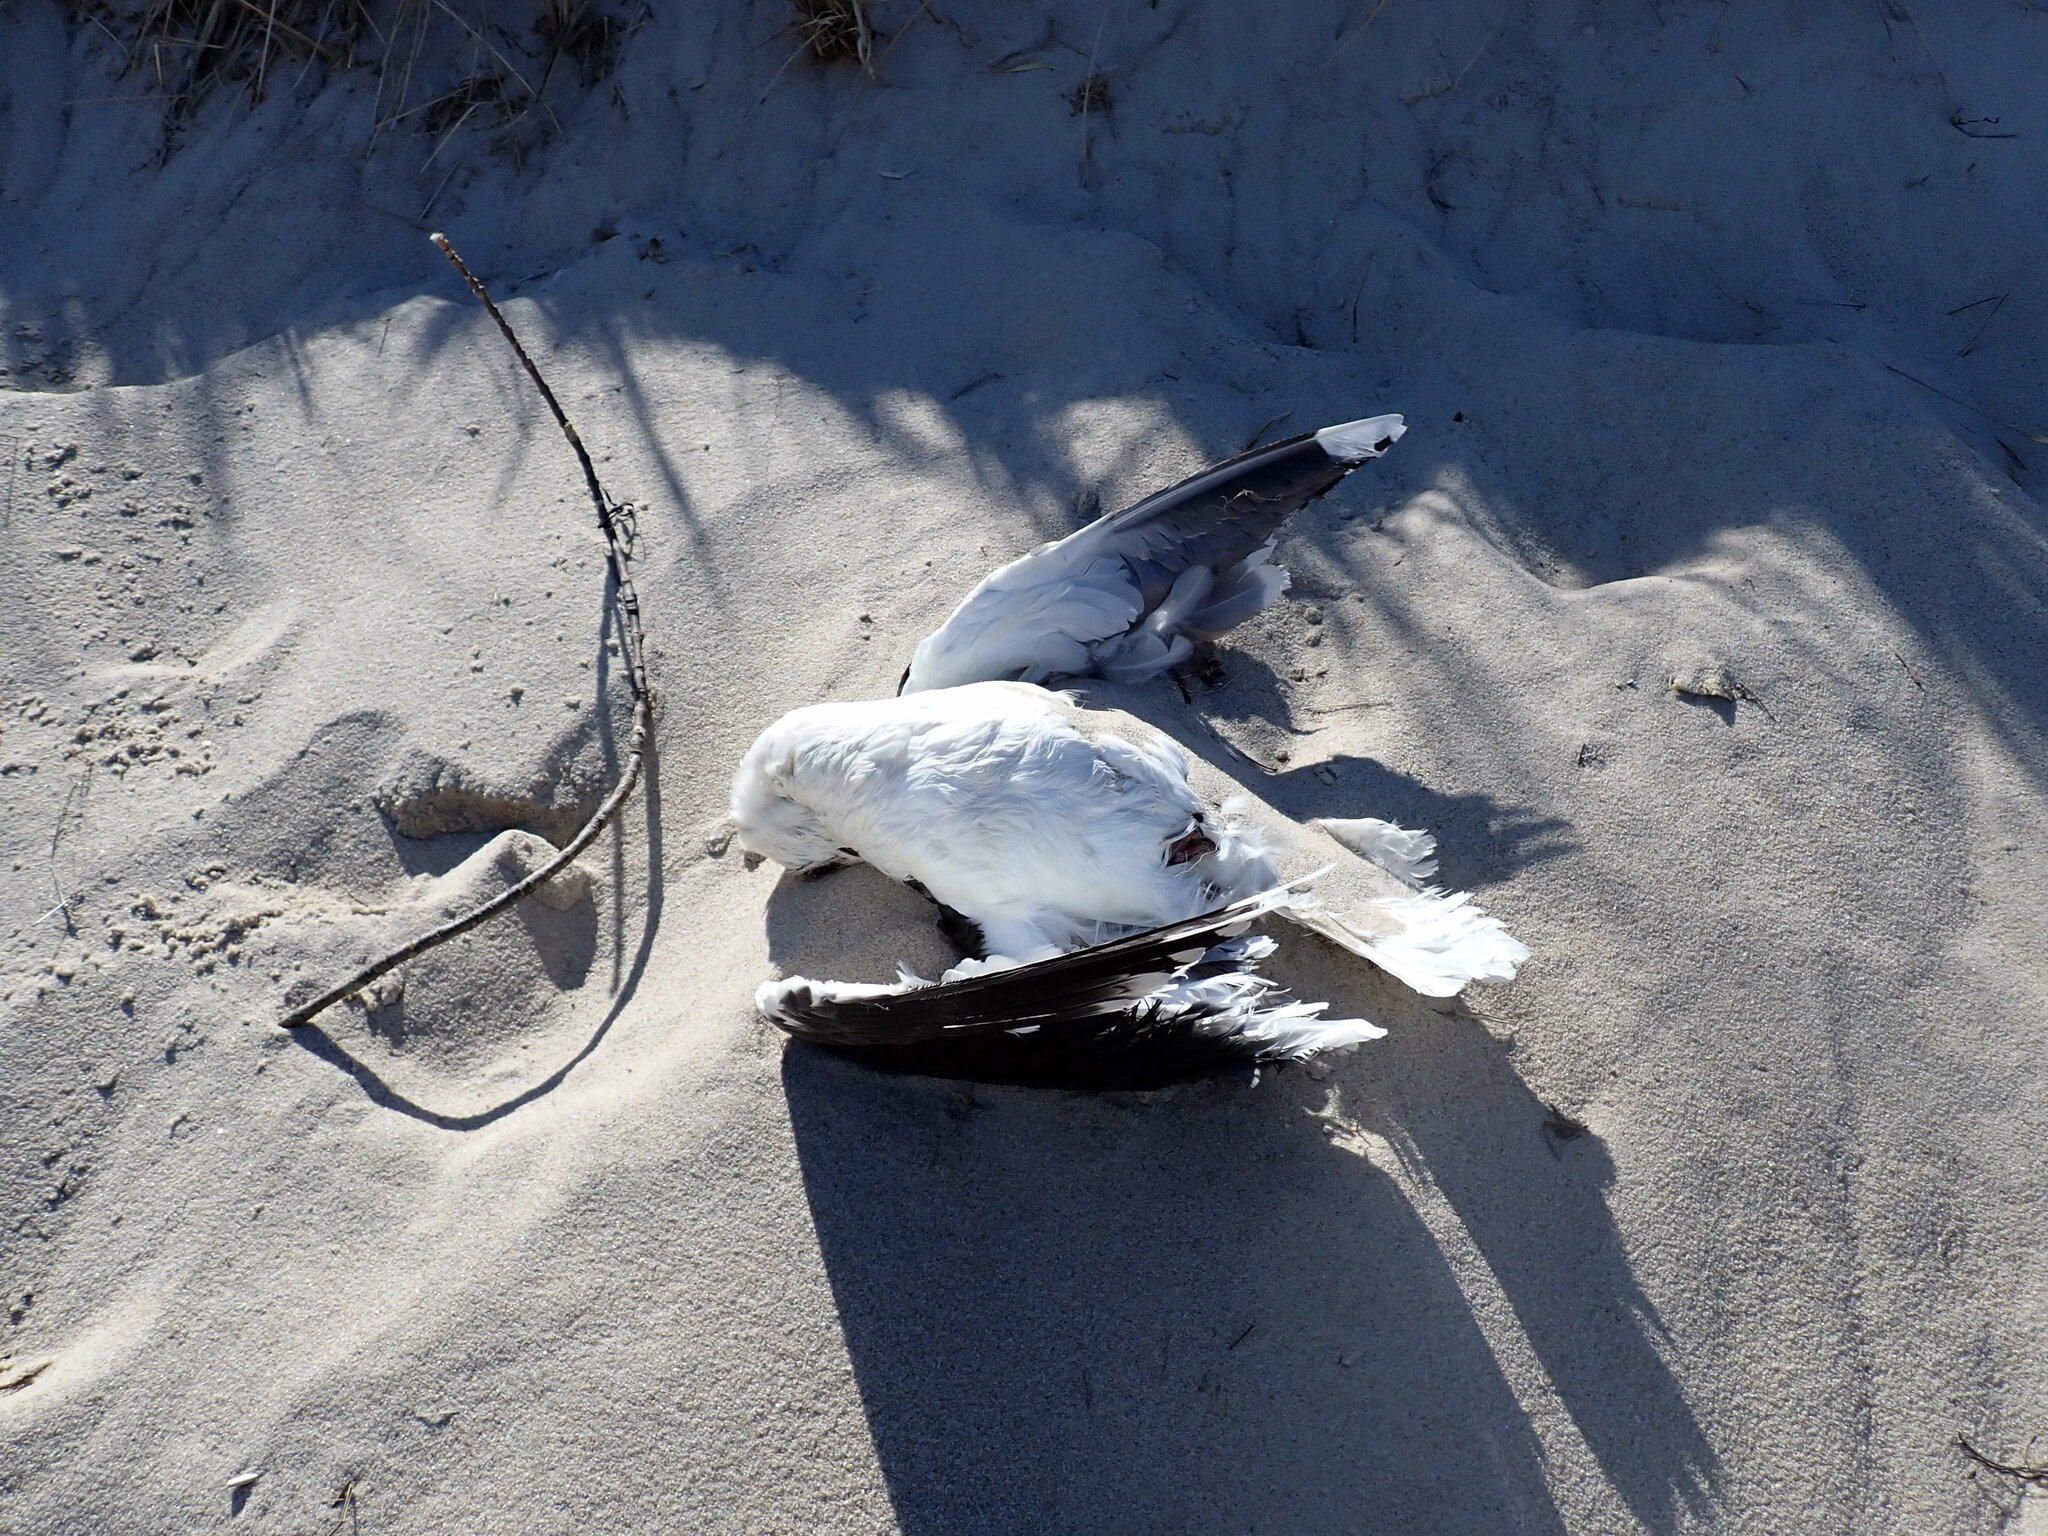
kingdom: Animalia
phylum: Chordata
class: Aves
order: Charadriiformes
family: Laridae
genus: Larus
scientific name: Larus marinus
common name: Great black-backed gull
